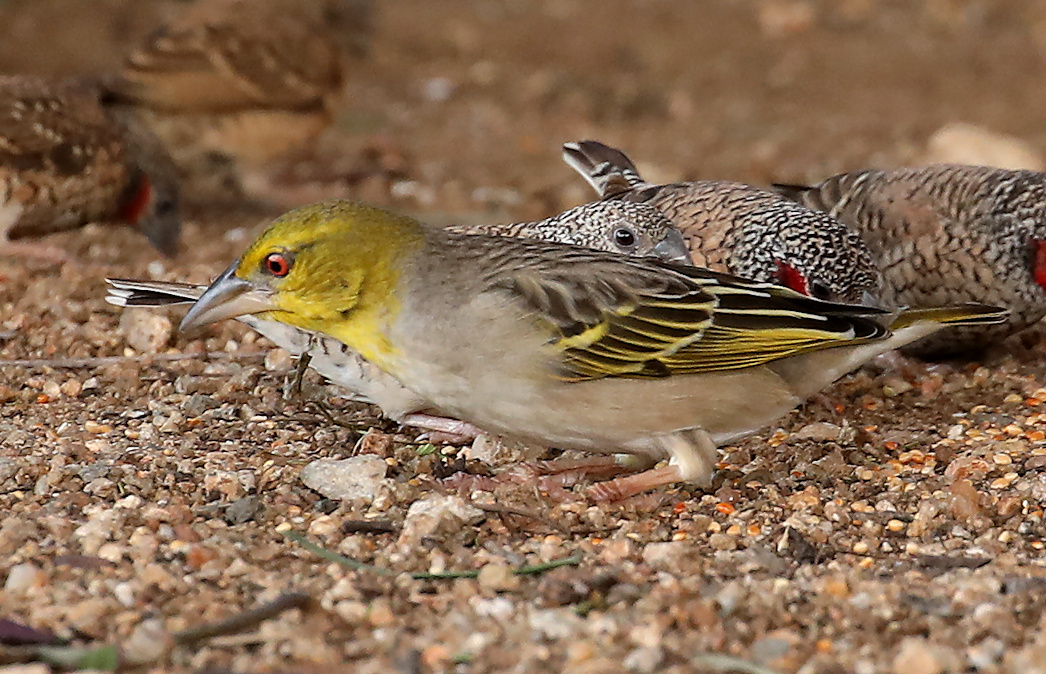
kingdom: Animalia
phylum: Chordata
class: Aves
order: Passeriformes
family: Ploceidae
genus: Ploceus
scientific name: Ploceus cucullatus
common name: Village weaver
